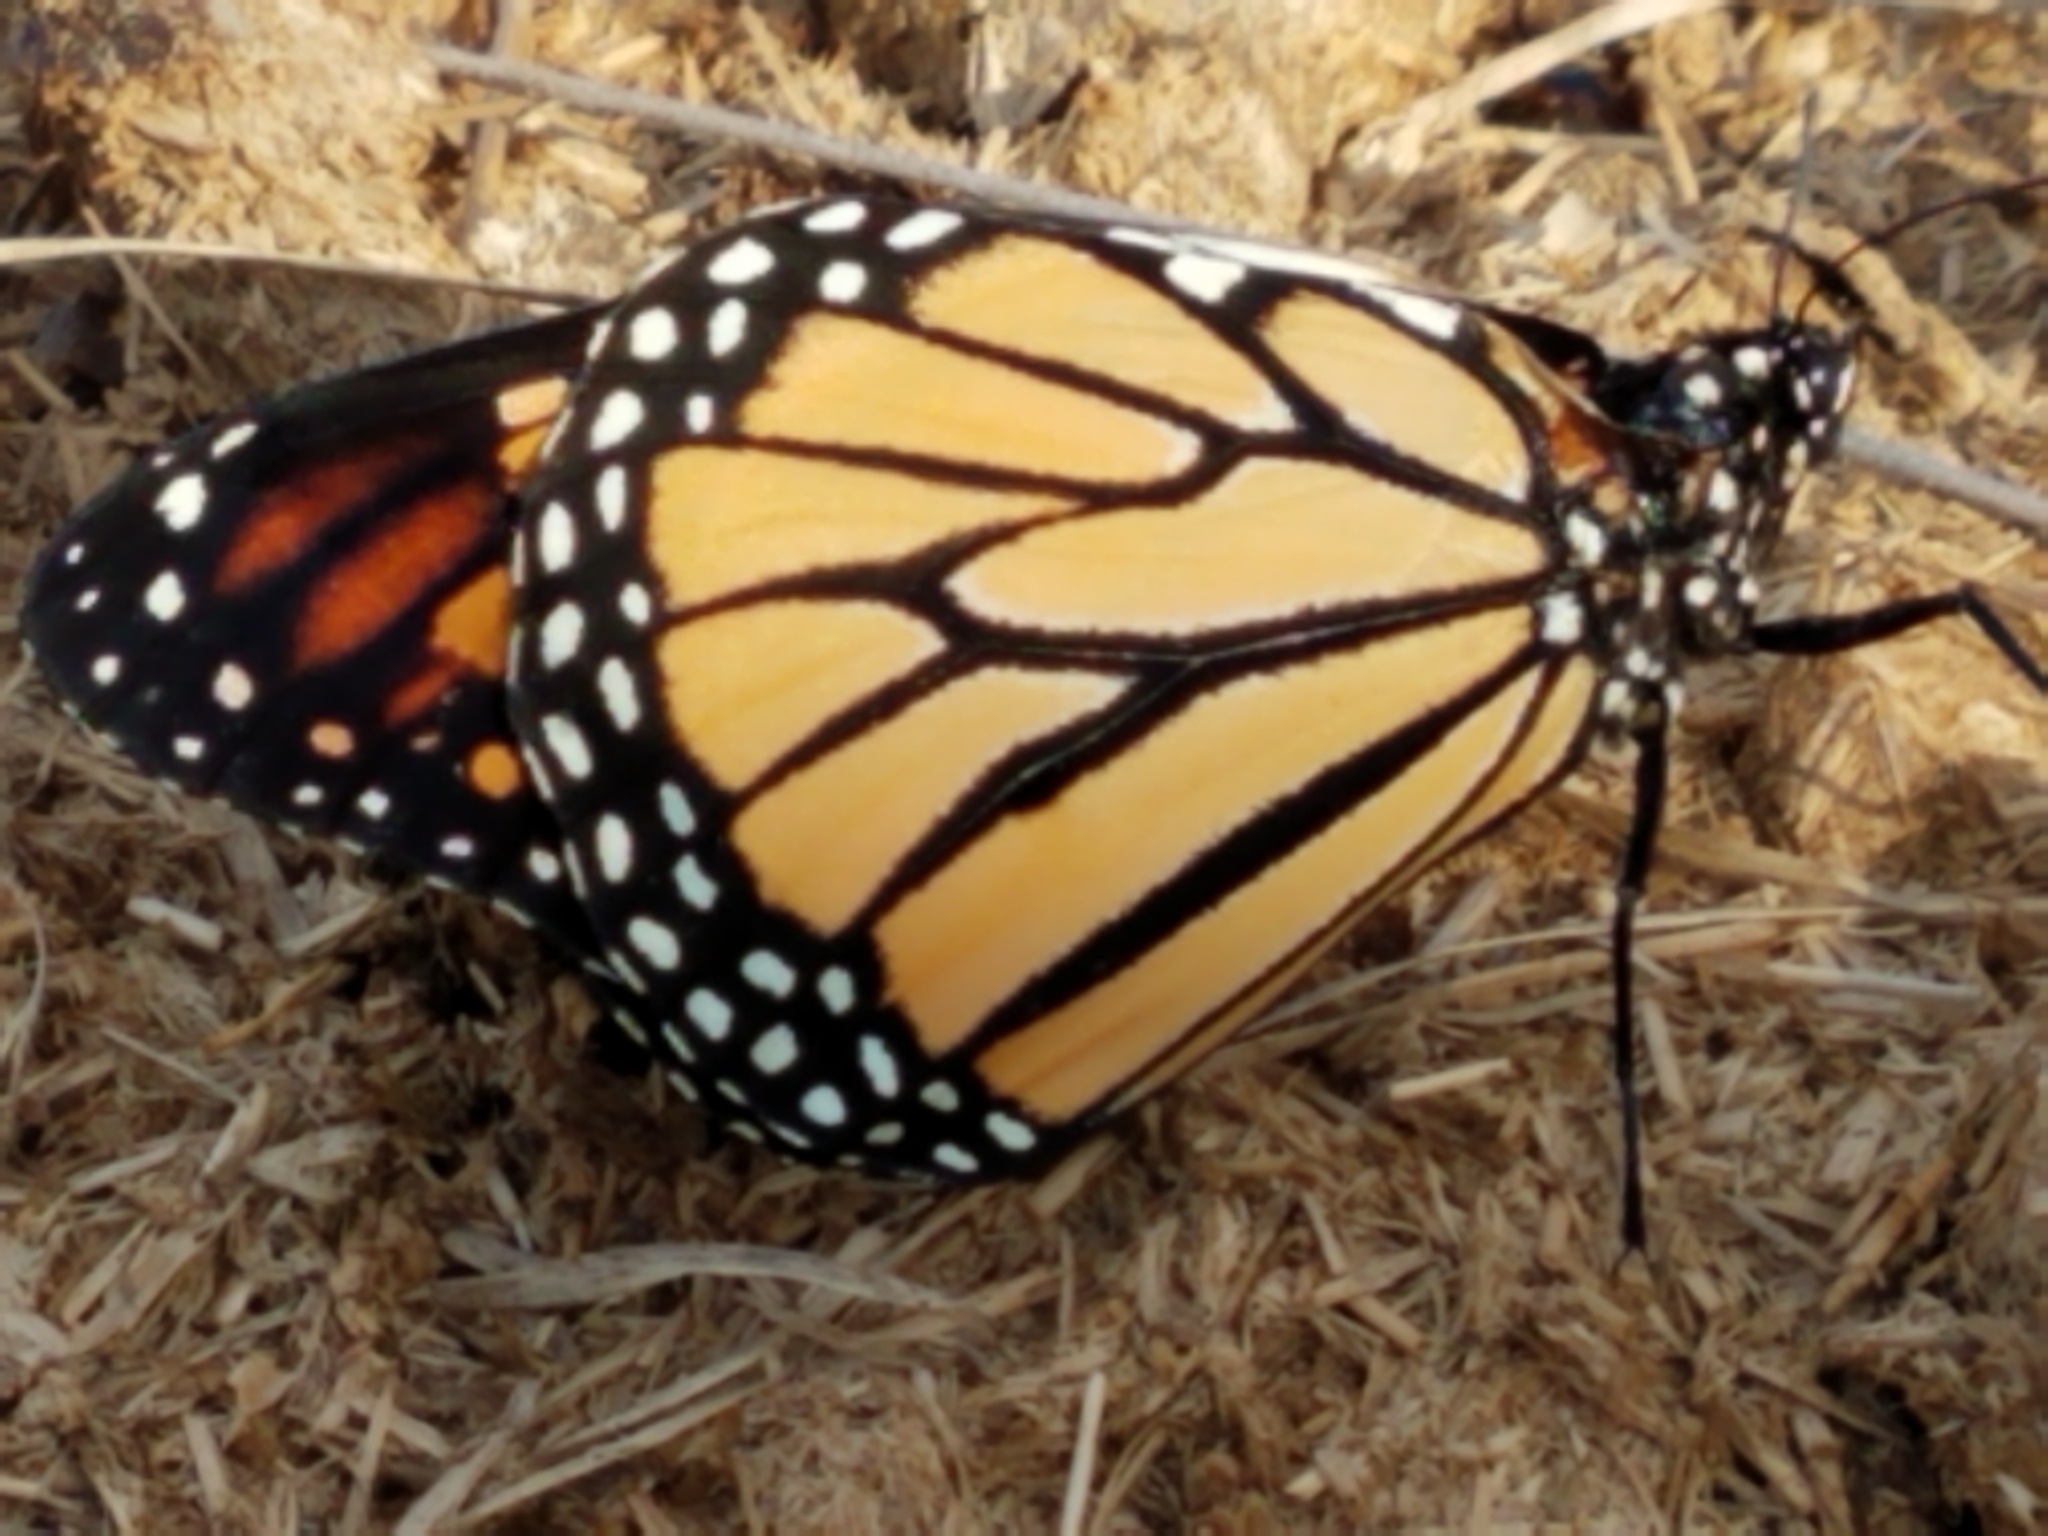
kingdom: Animalia
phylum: Arthropoda
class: Insecta
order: Lepidoptera
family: Nymphalidae
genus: Danaus
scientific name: Danaus plexippus
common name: Monarch
